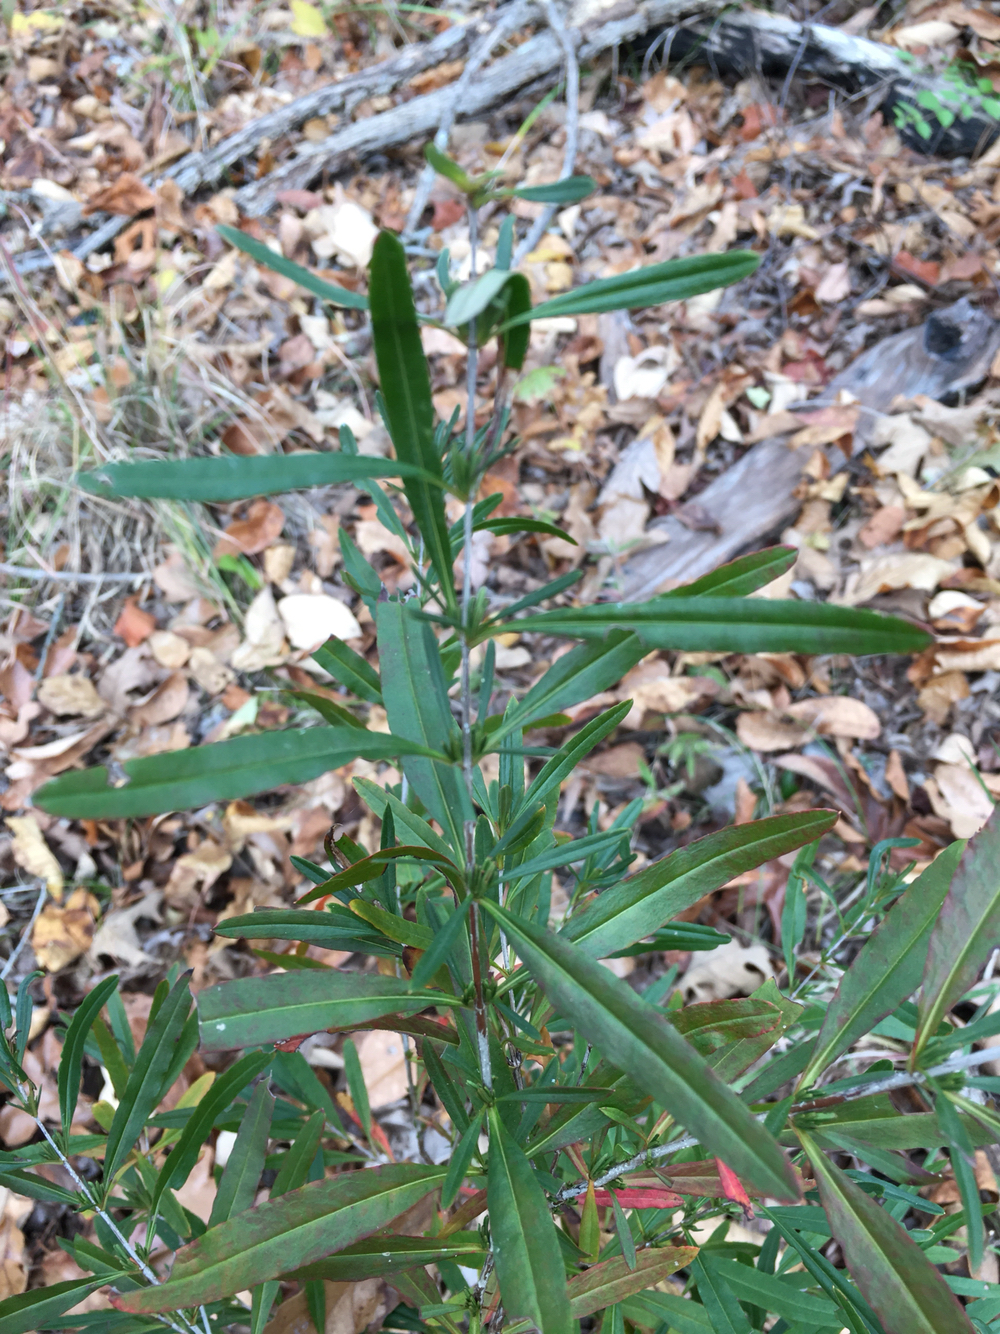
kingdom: Plantae
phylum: Tracheophyta
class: Magnoliopsida
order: Malpighiales
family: Hypericaceae
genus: Hypericum
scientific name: Hypericum densiflorum
